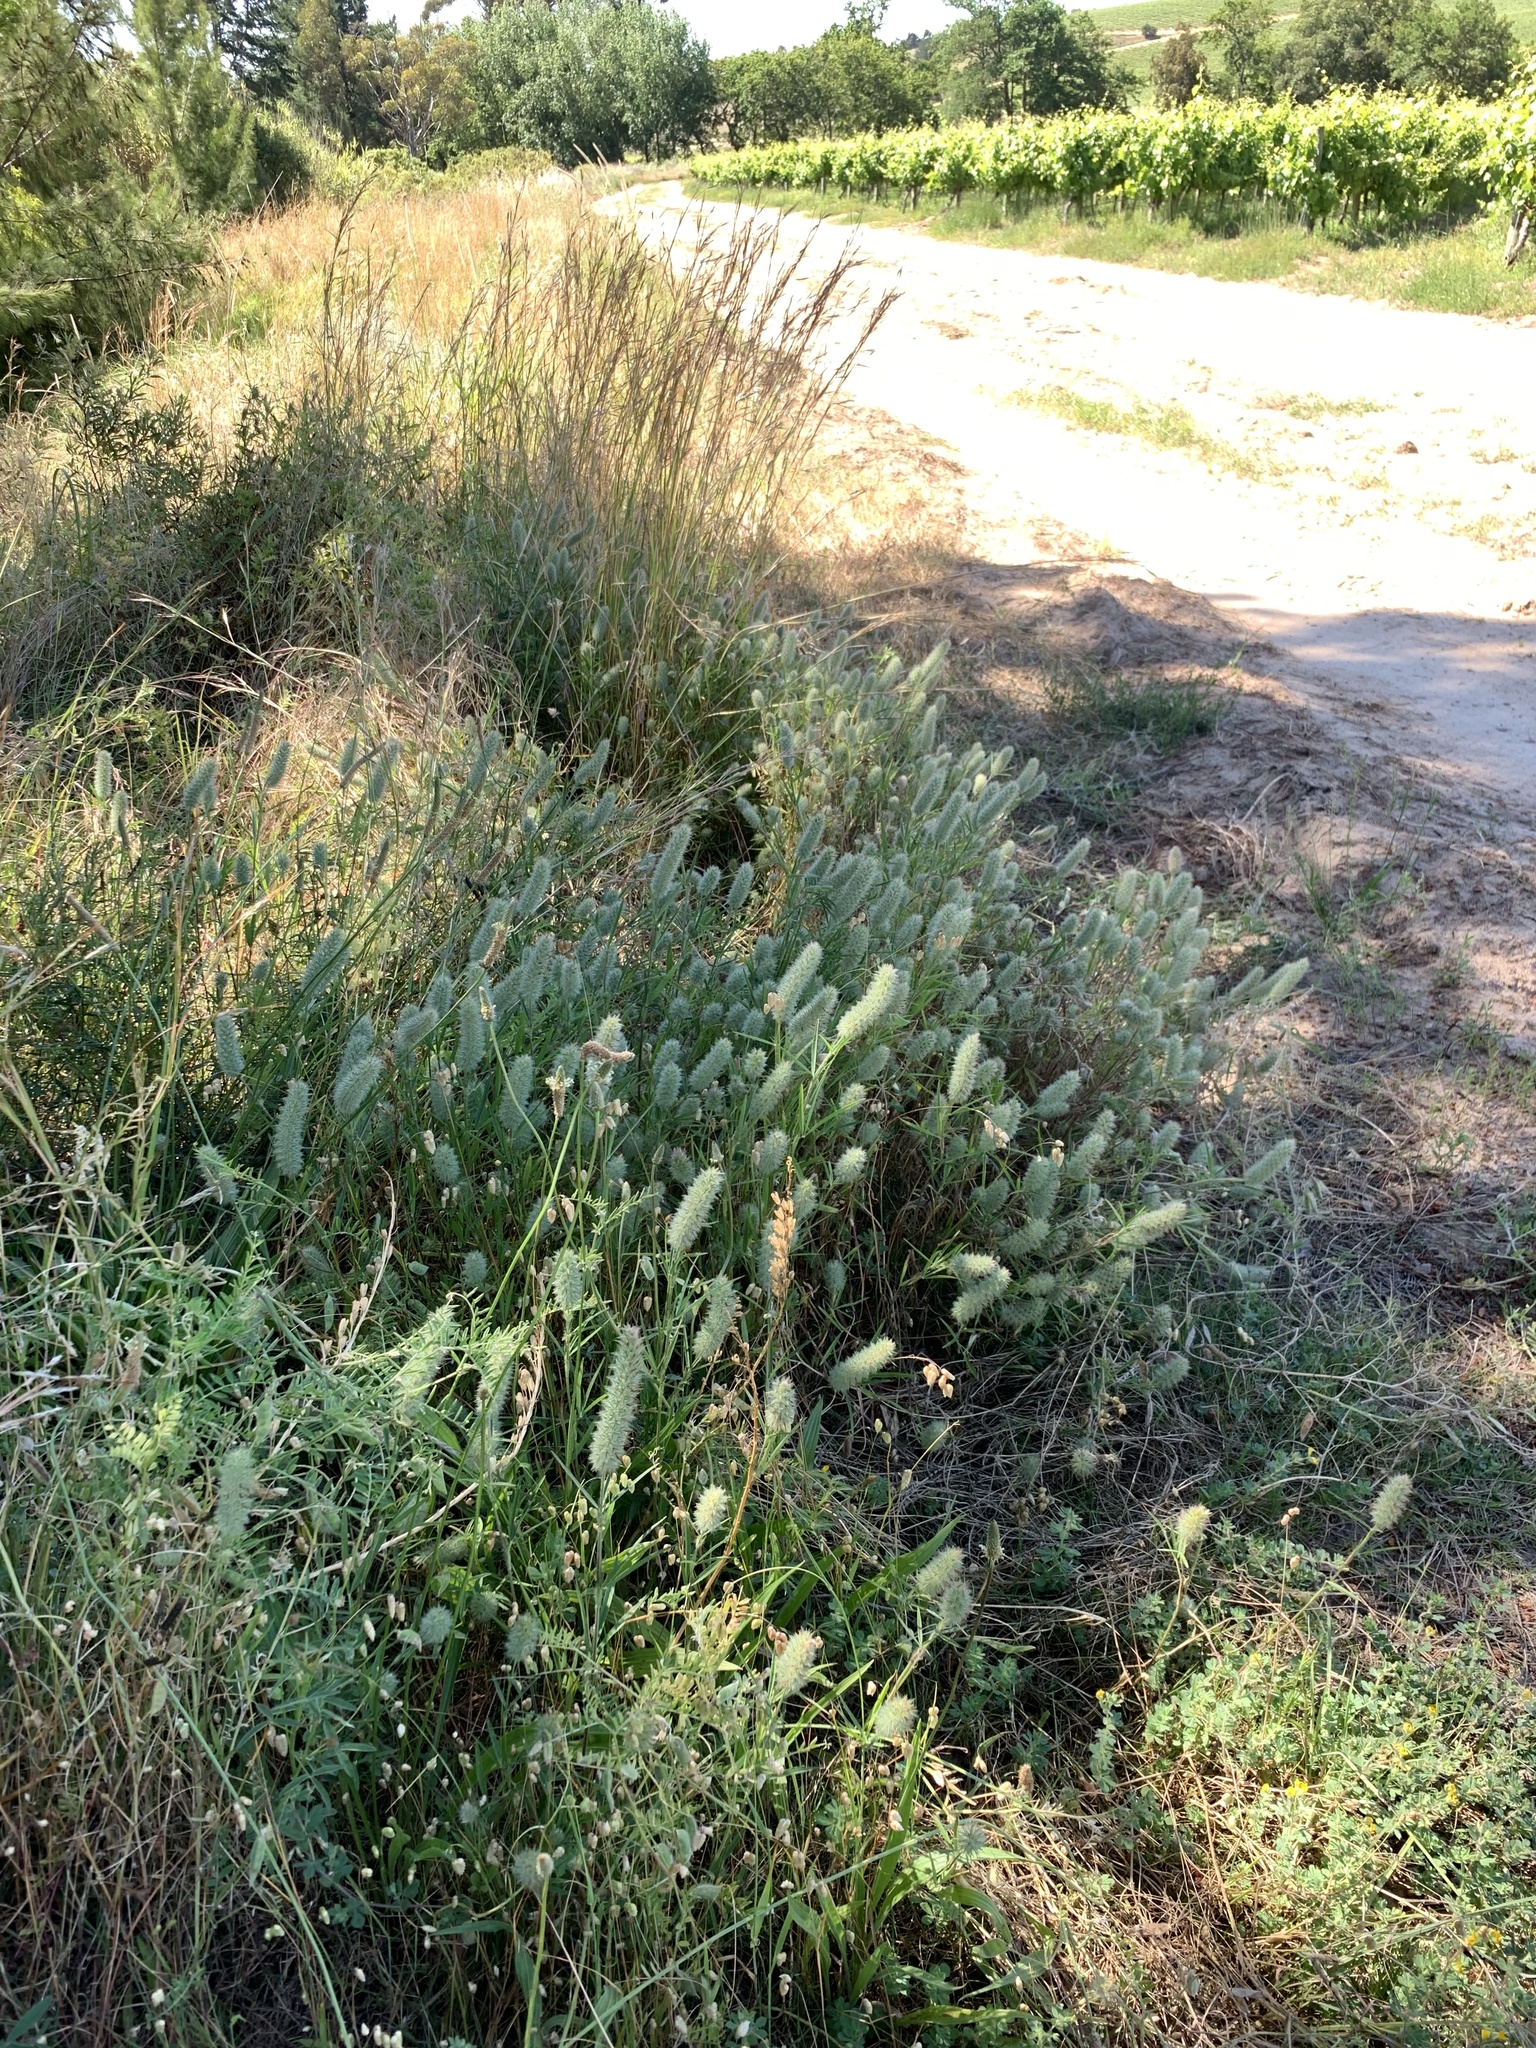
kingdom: Plantae
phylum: Tracheophyta
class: Magnoliopsida
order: Fabales
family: Fabaceae
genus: Trifolium
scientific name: Trifolium angustifolium
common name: Narrow clover
